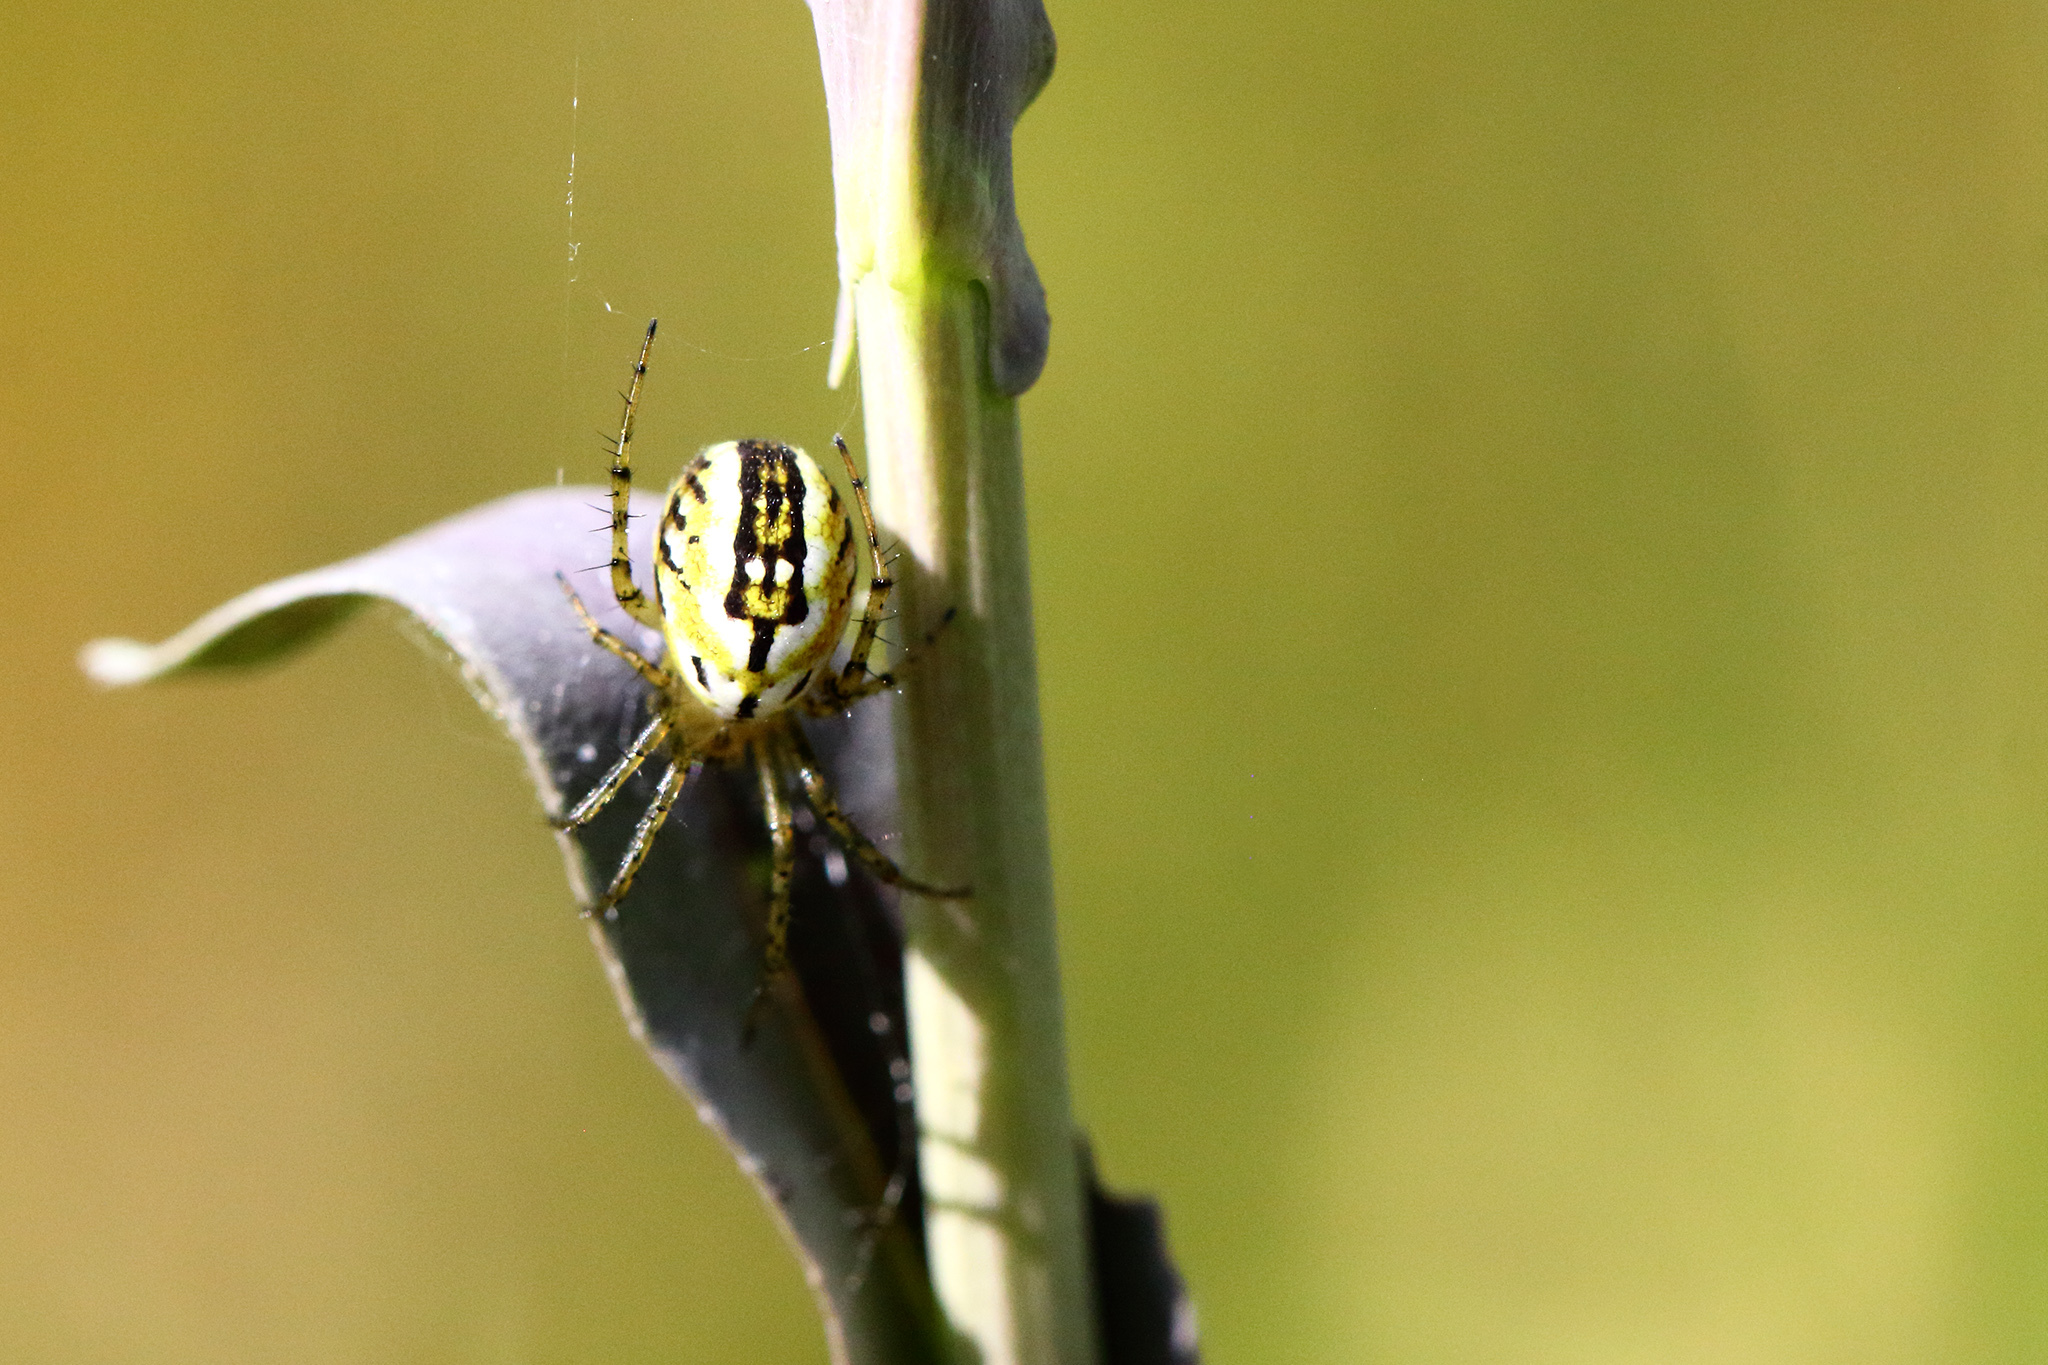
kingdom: Animalia
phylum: Arthropoda
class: Arachnida
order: Araneae
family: Araneidae
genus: Mangora
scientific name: Mangora acalypha
